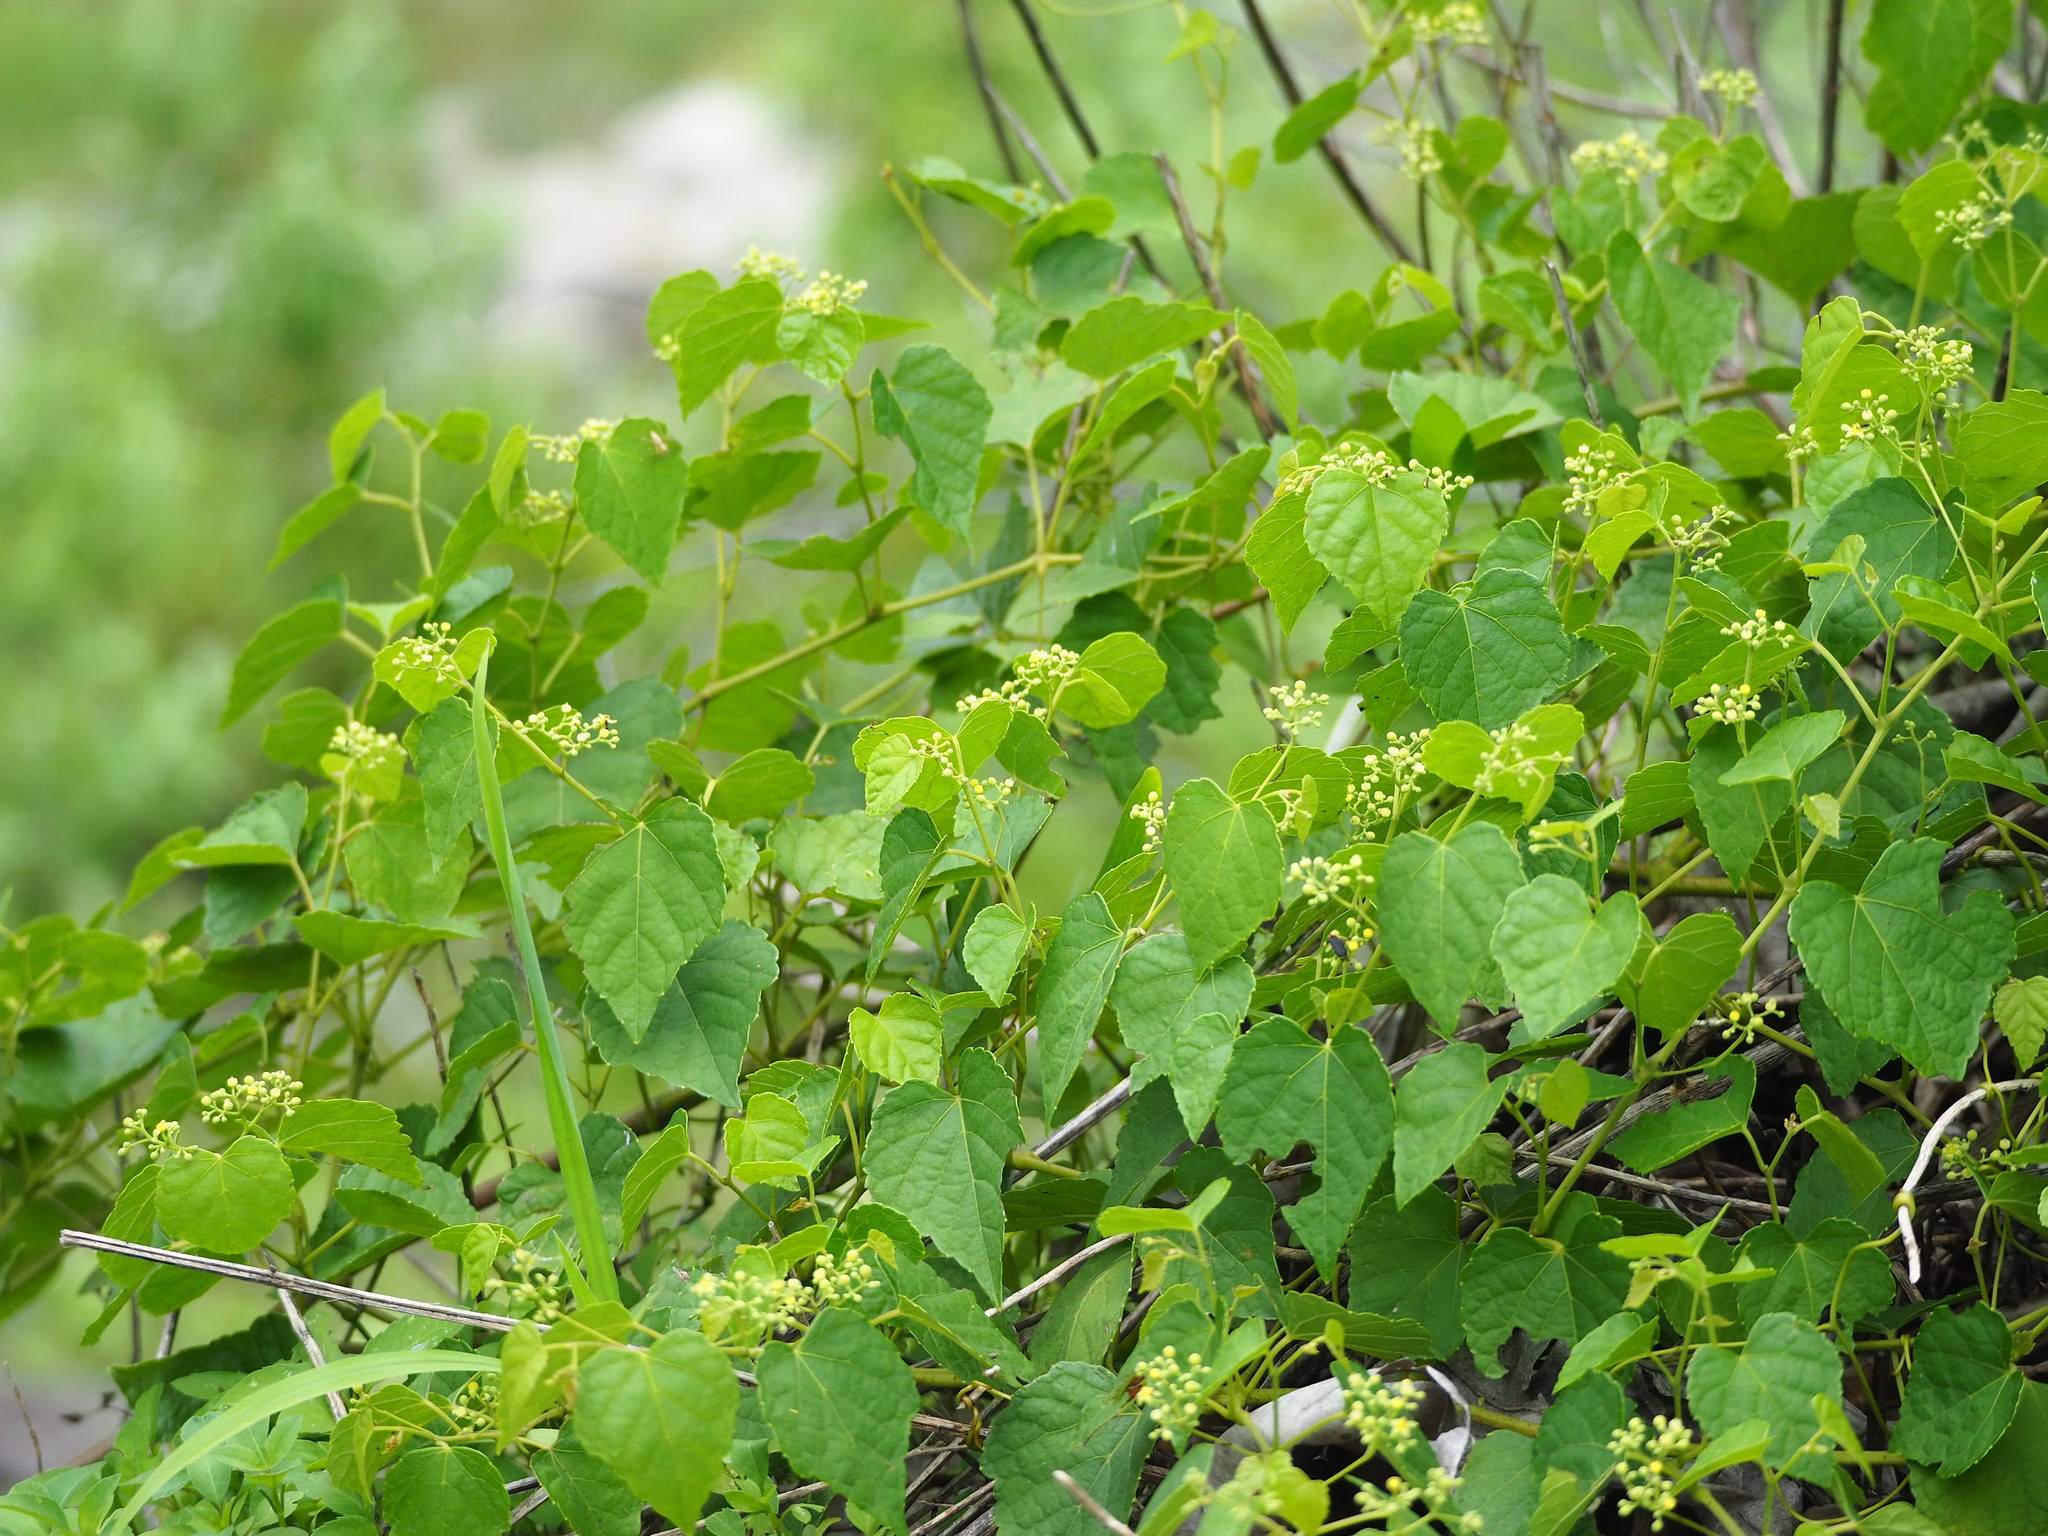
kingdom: Plantae
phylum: Tracheophyta
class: Magnoliopsida
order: Vitales
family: Vitaceae
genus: Ampelopsis
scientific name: Ampelopsis glandulosa
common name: Amur peppervine
